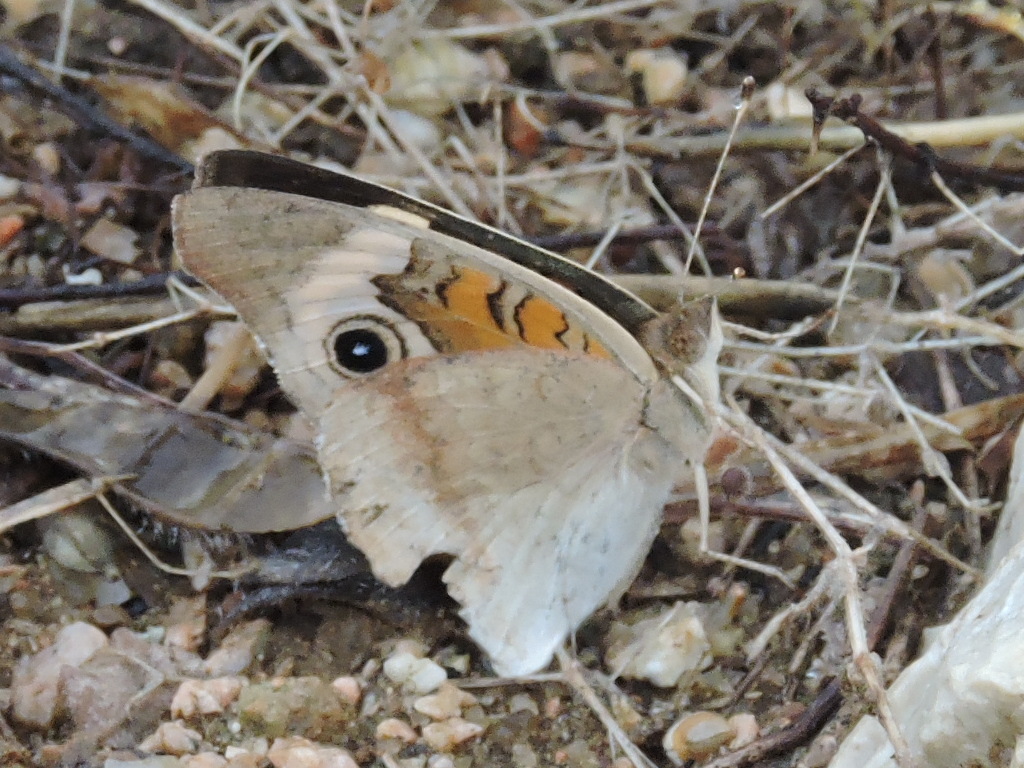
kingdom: Animalia
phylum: Arthropoda
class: Insecta
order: Lepidoptera
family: Nymphalidae
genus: Junonia
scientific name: Junonia coenia
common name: Common buckeye
